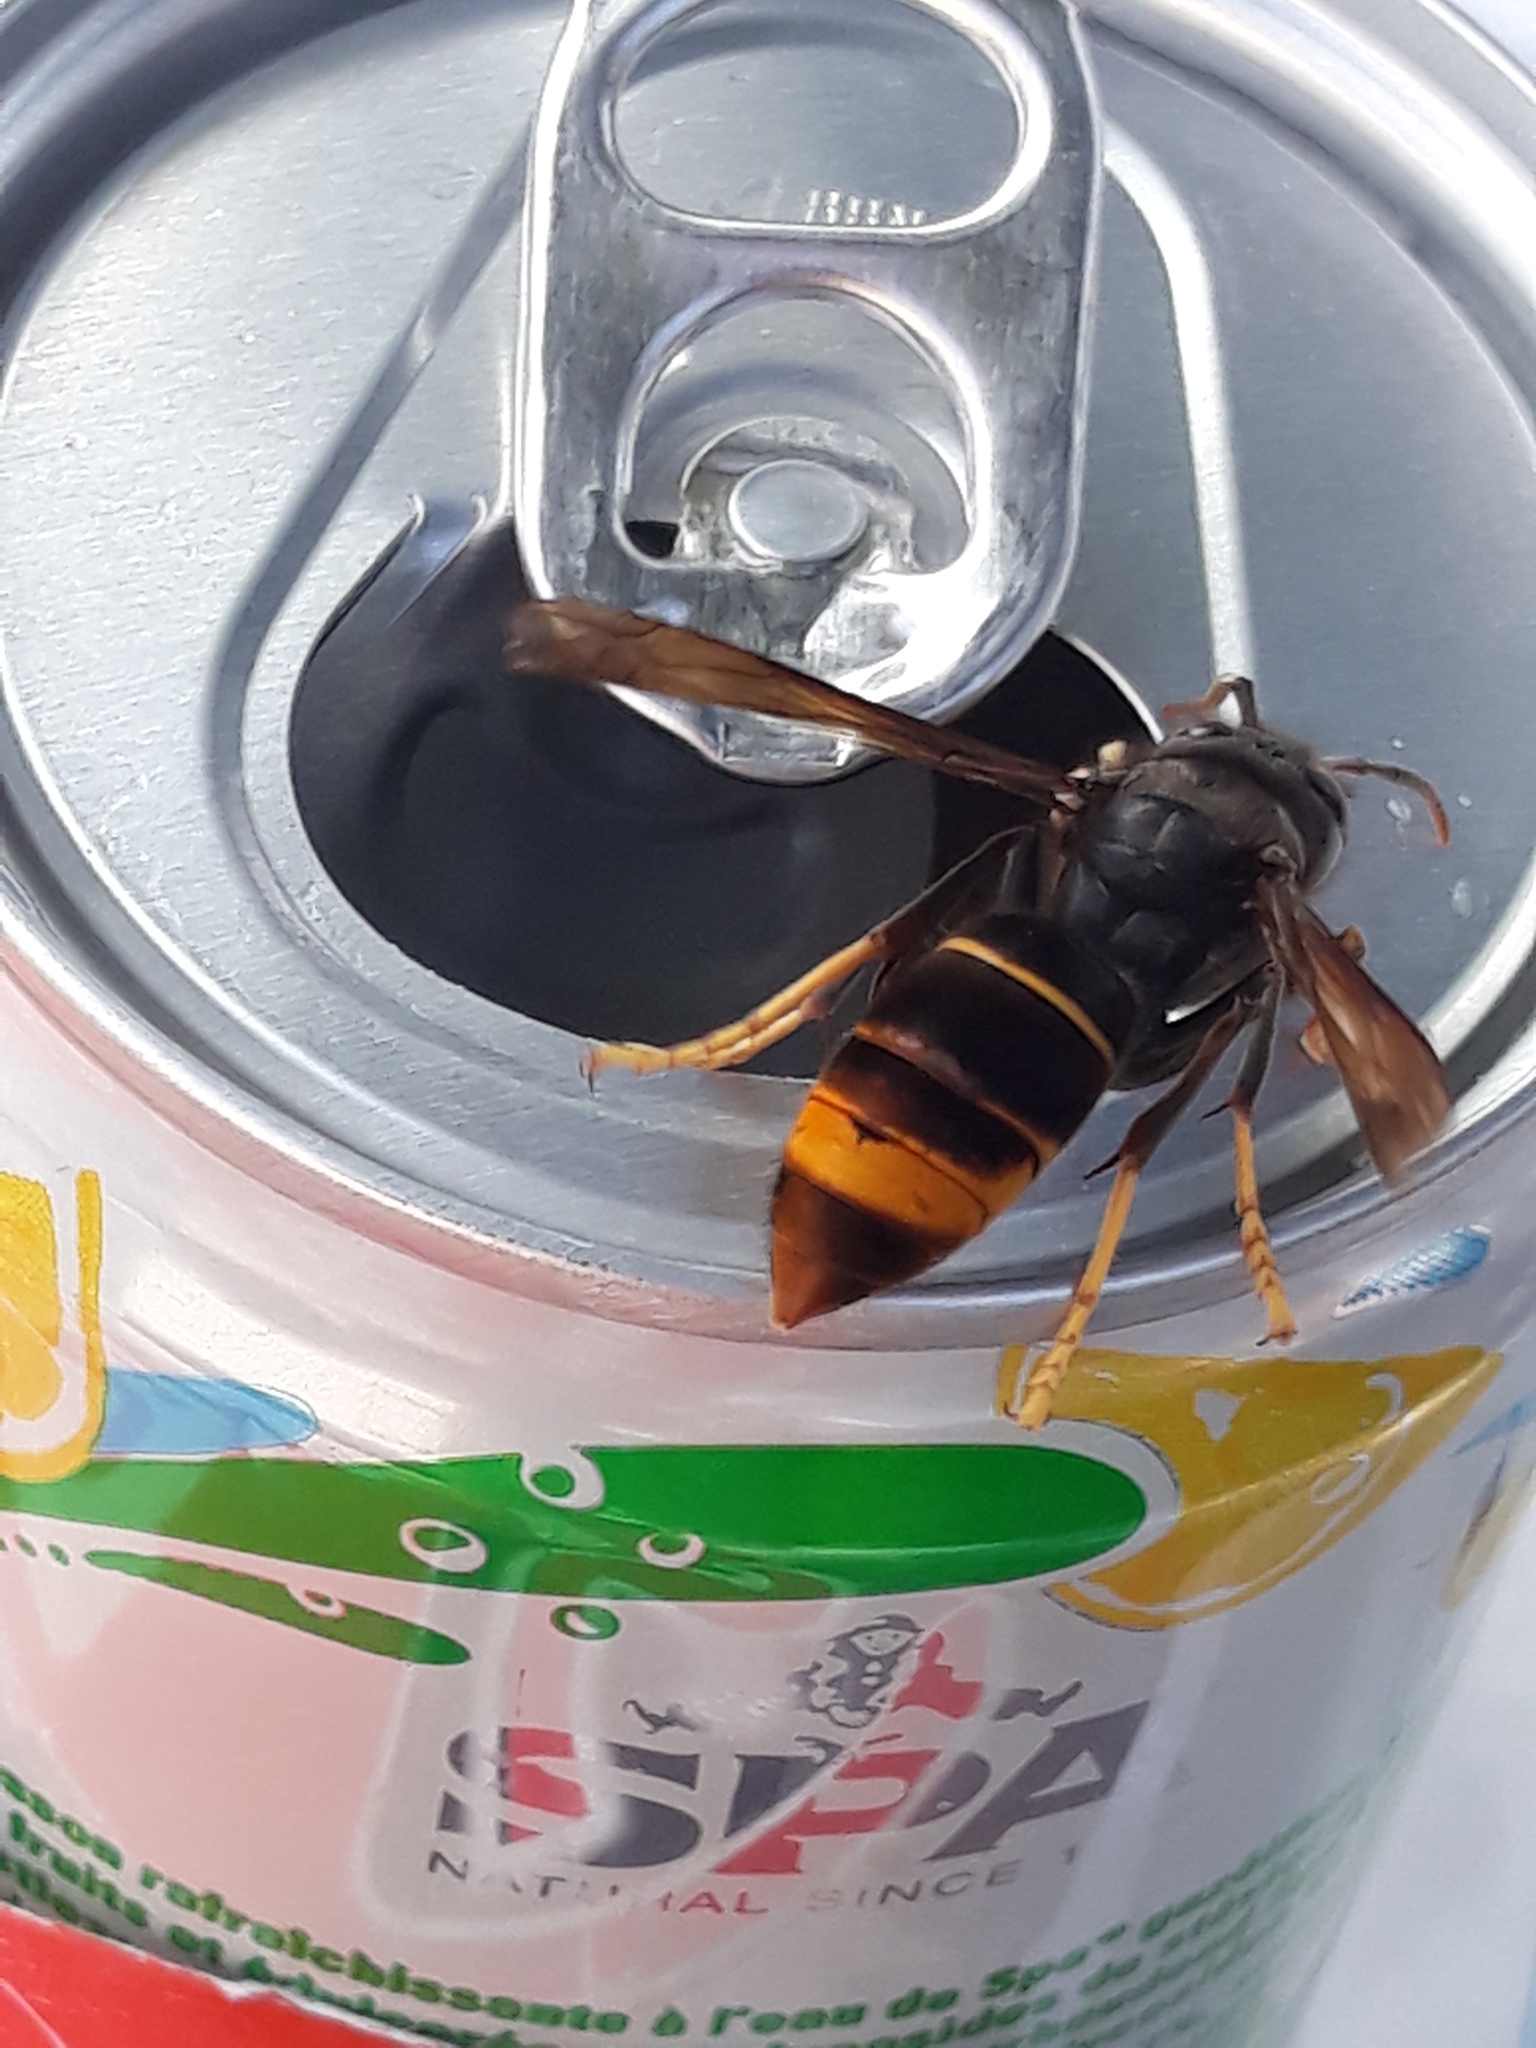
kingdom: Animalia
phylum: Arthropoda
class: Insecta
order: Hymenoptera
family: Vespidae
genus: Vespa
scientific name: Vespa velutina
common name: Asian hornet
